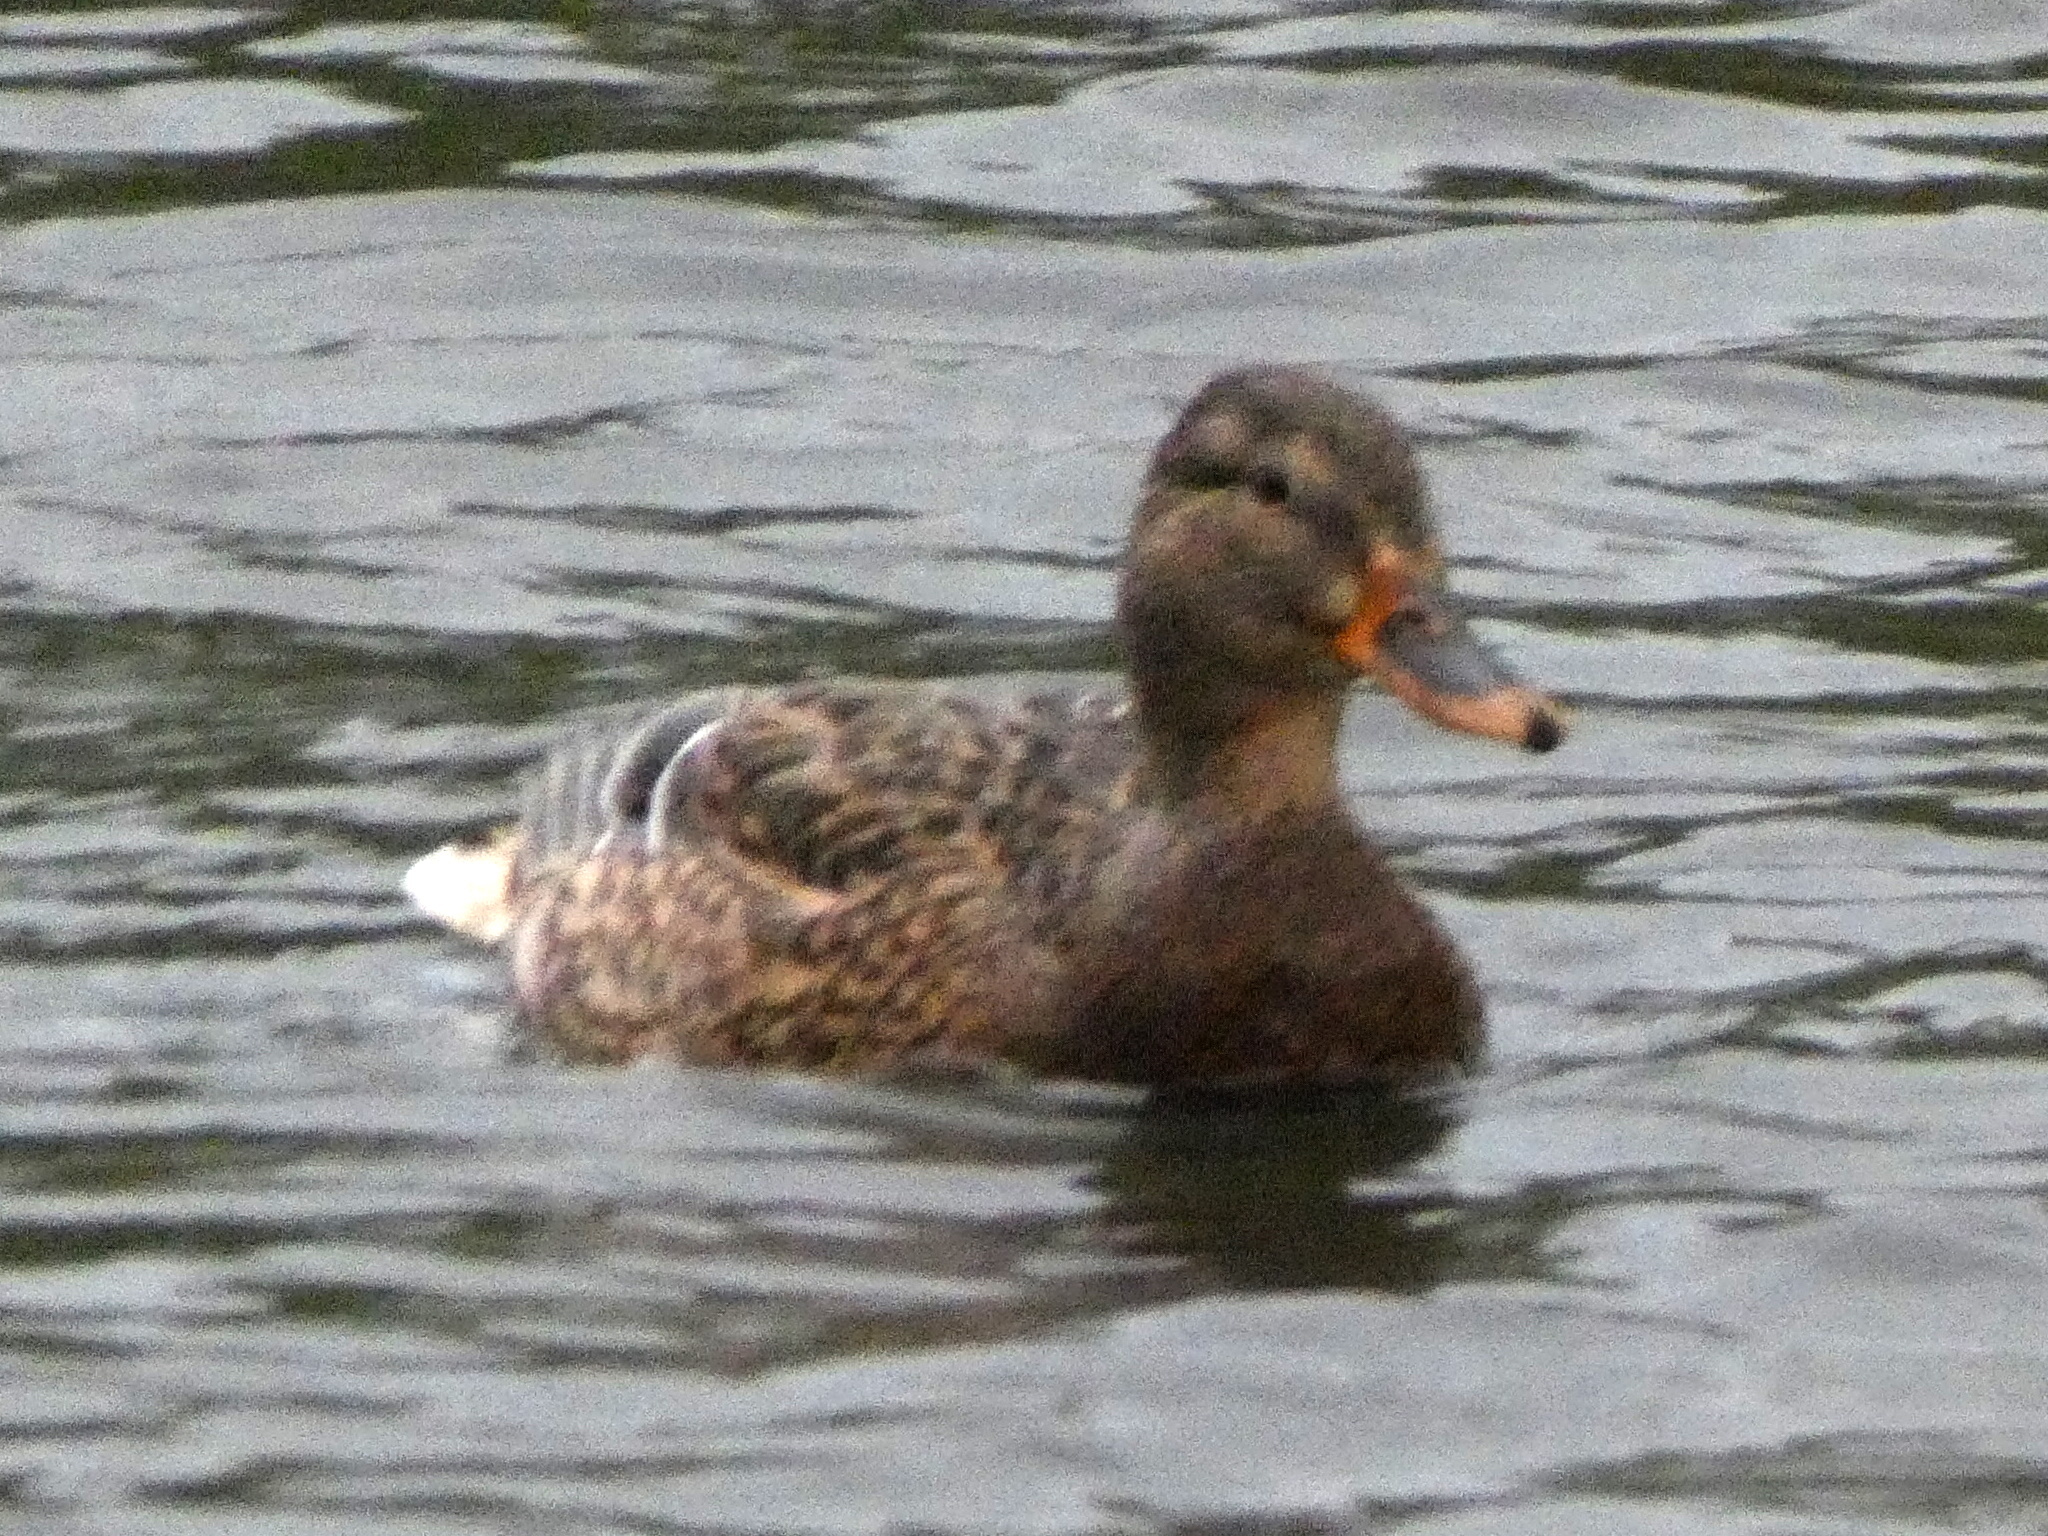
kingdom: Animalia
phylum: Chordata
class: Aves
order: Anseriformes
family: Anatidae
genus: Anas
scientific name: Anas platyrhynchos
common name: Mallard
